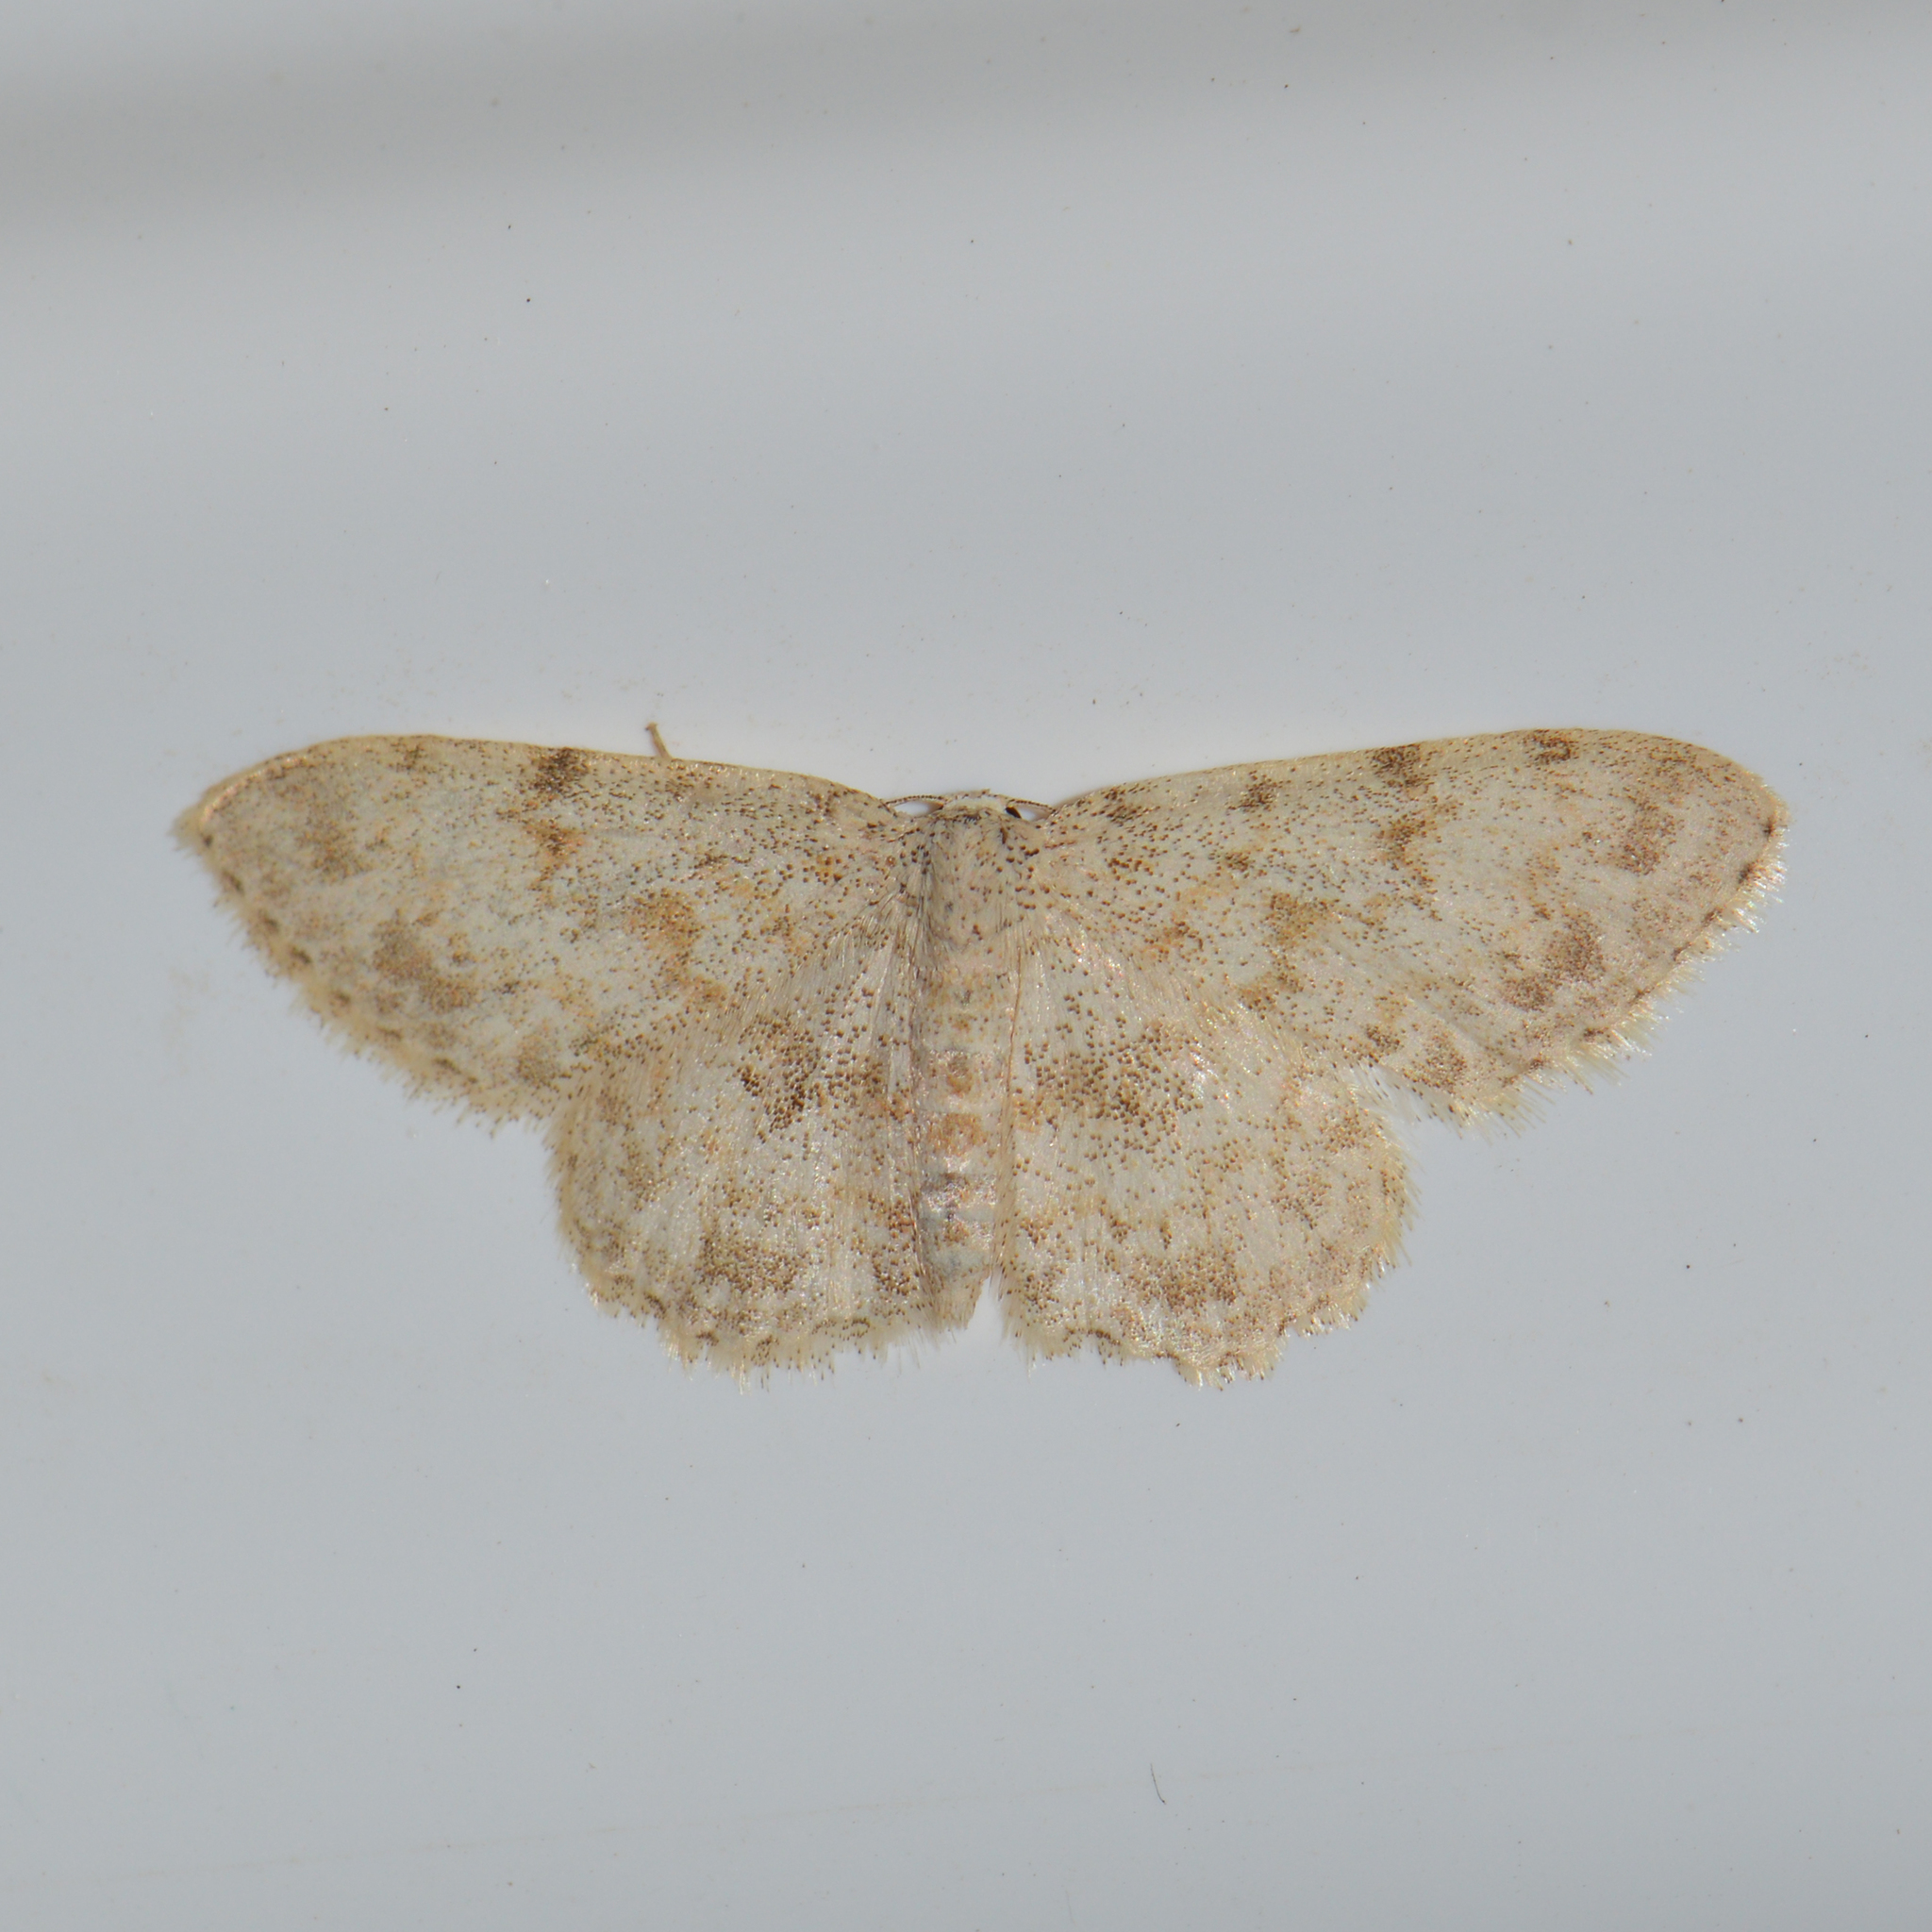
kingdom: Animalia
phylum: Arthropoda
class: Insecta
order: Lepidoptera
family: Geometridae
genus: Scopula
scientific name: Scopula luridata
